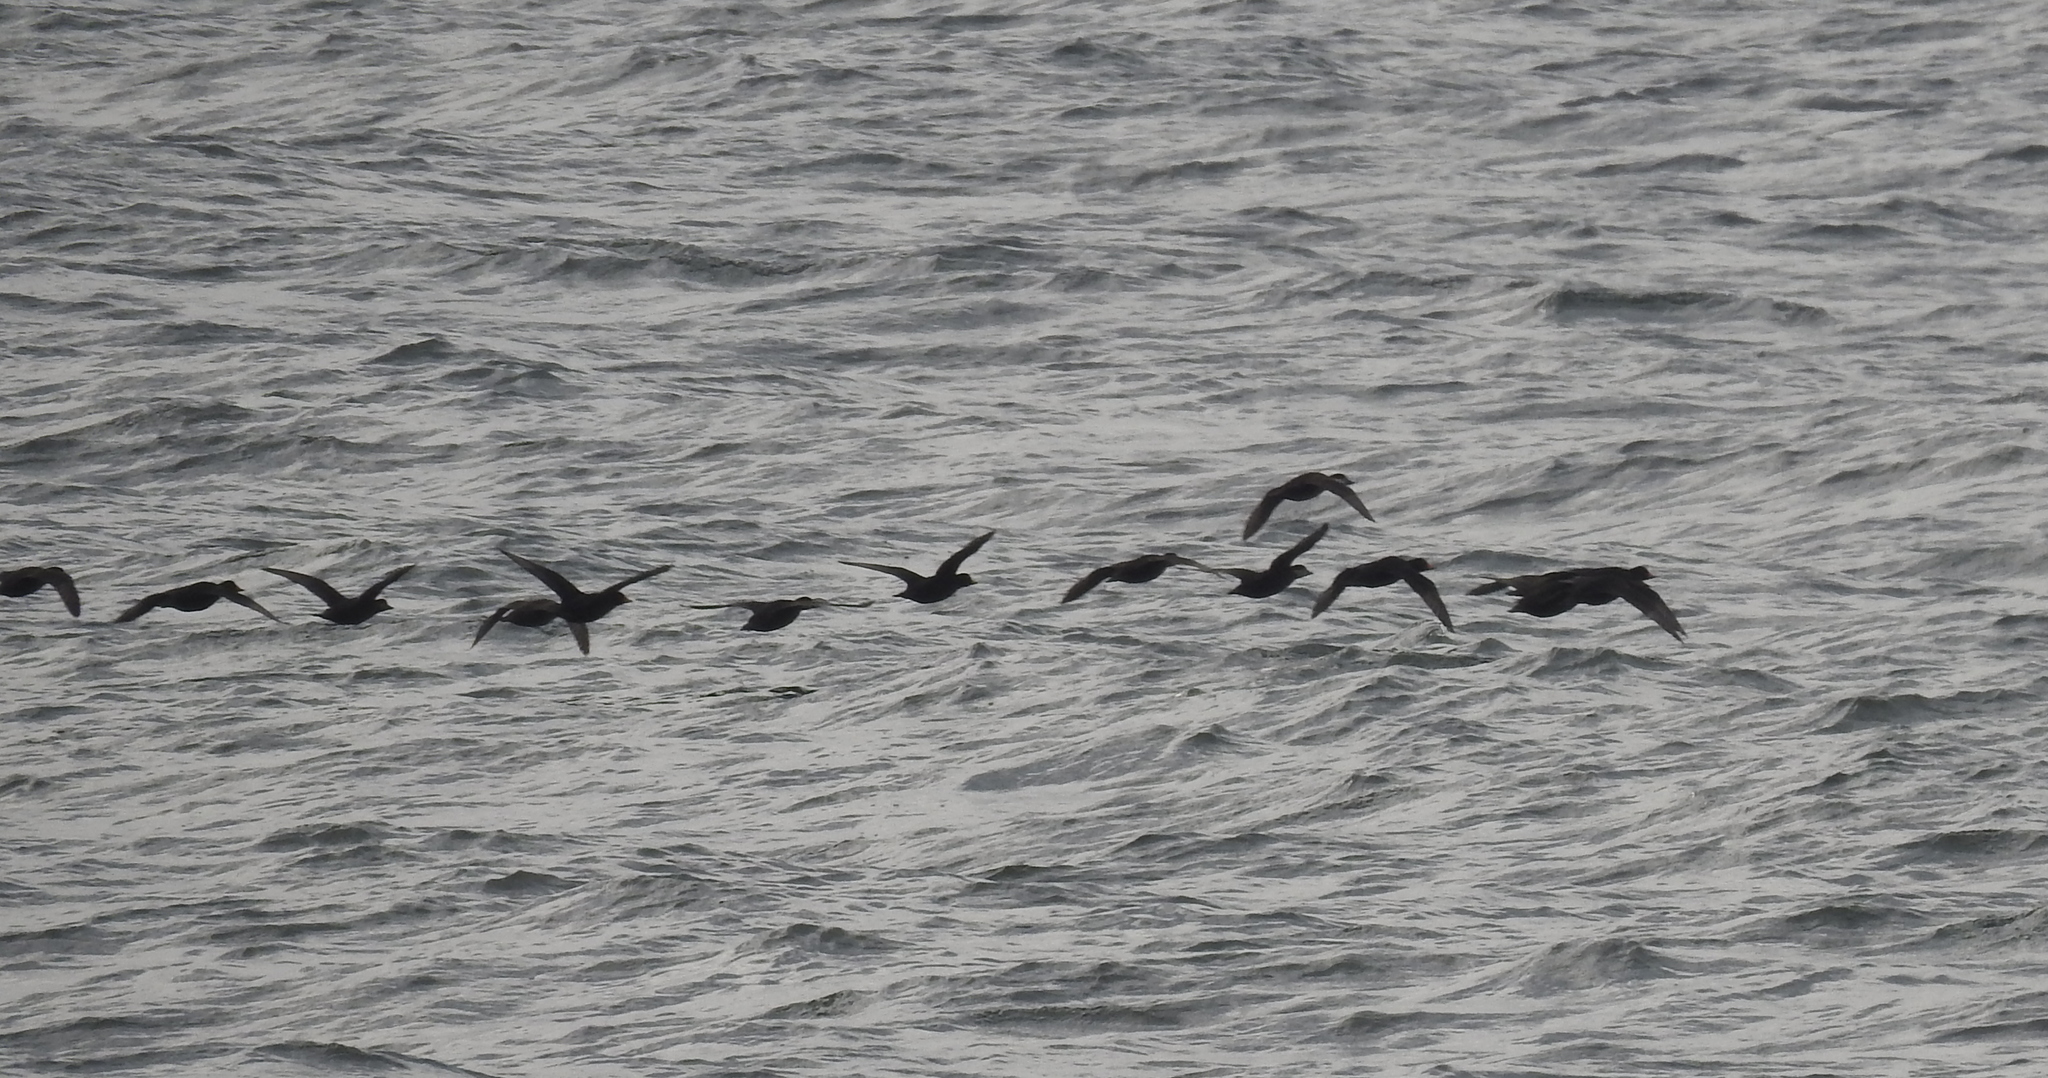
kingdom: Animalia
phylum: Chordata
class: Aves
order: Anseriformes
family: Anatidae
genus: Melanitta
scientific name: Melanitta americana
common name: Black scoter
